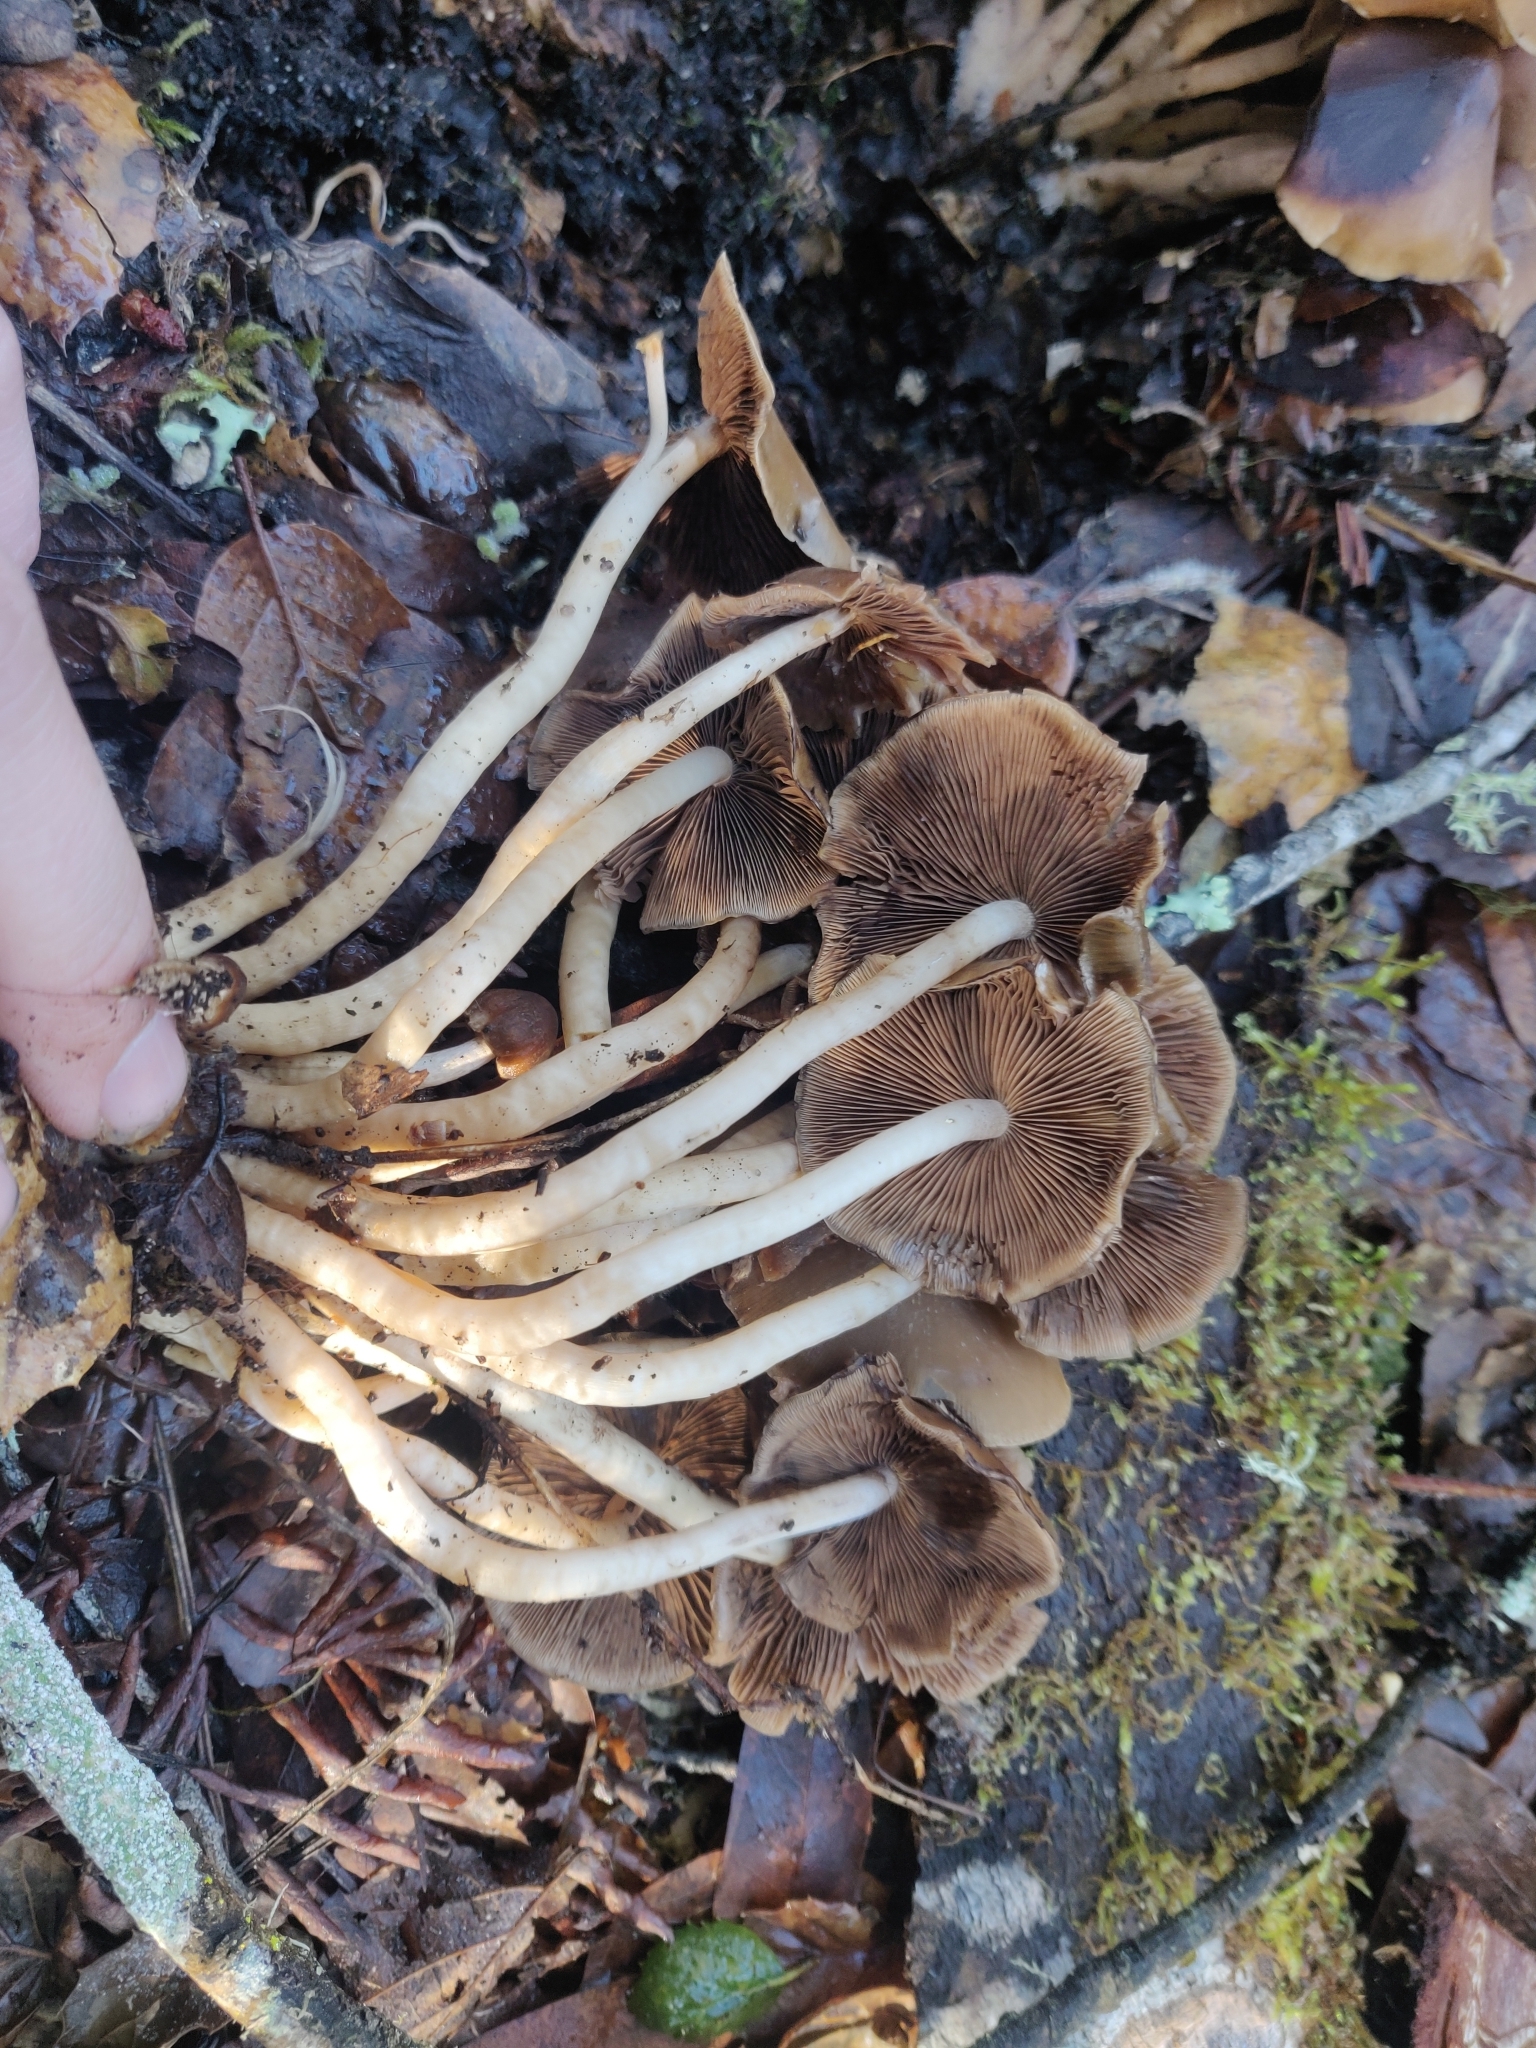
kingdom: Fungi
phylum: Basidiomycota
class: Agaricomycetes
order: Agaricales
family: Psathyrellaceae
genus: Psathyrella
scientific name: Psathyrella piluliformis
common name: Common stump brittlestem
